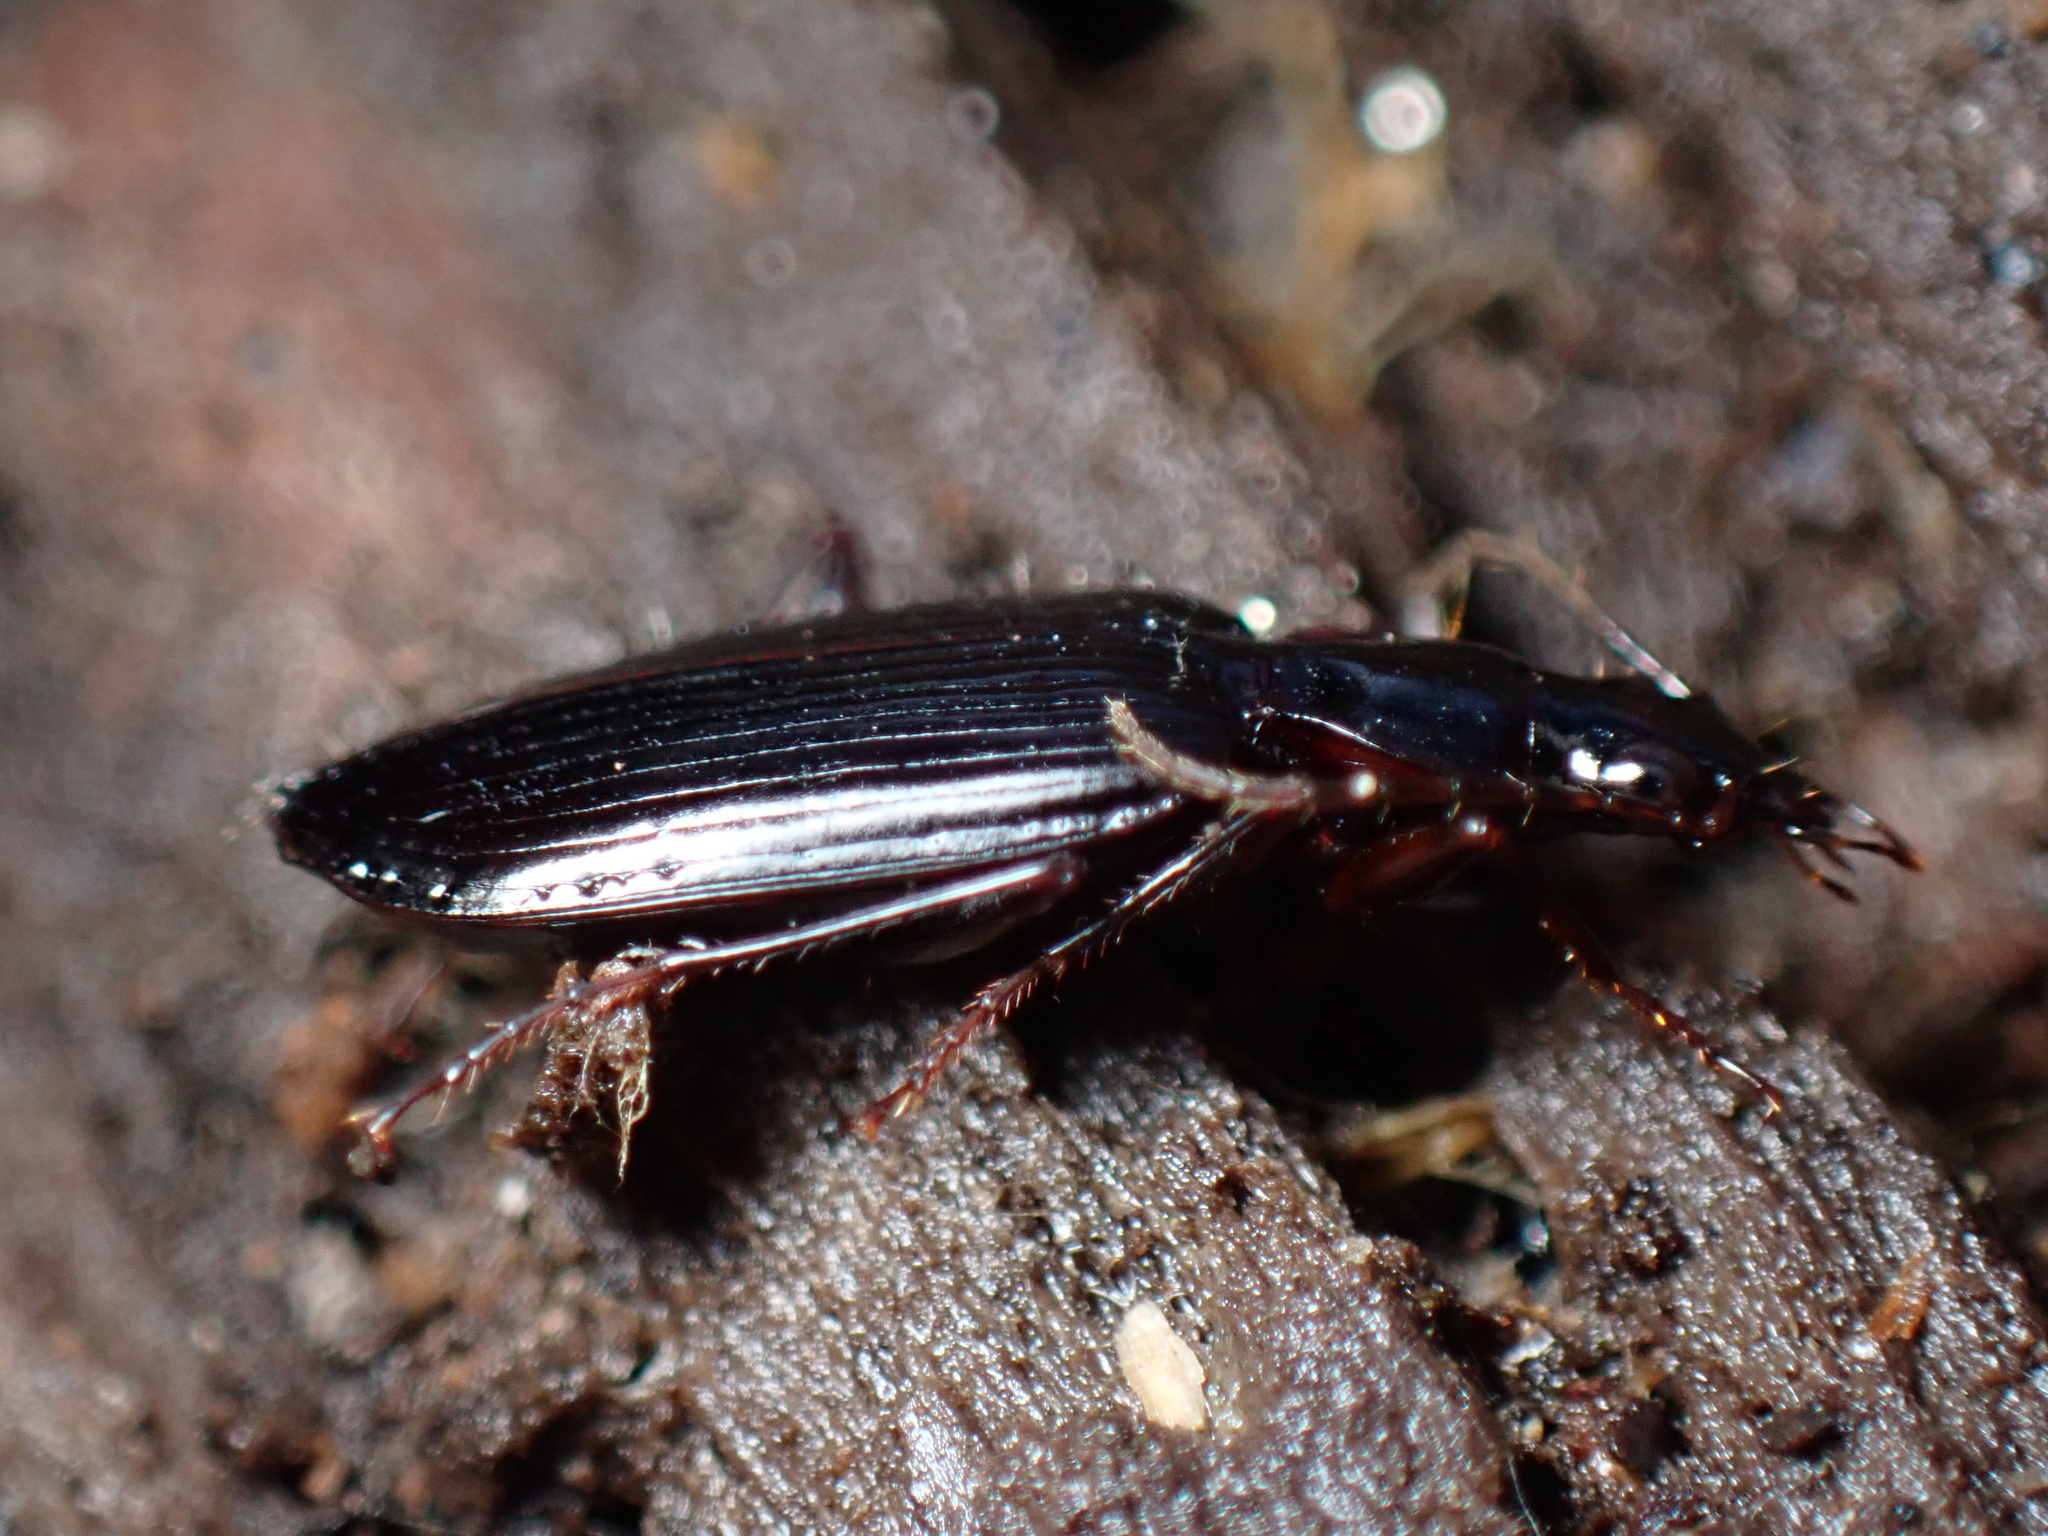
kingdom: Animalia
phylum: Arthropoda
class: Insecta
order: Coleoptera
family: Carabidae
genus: Platynus
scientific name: Platynus cincticollis
